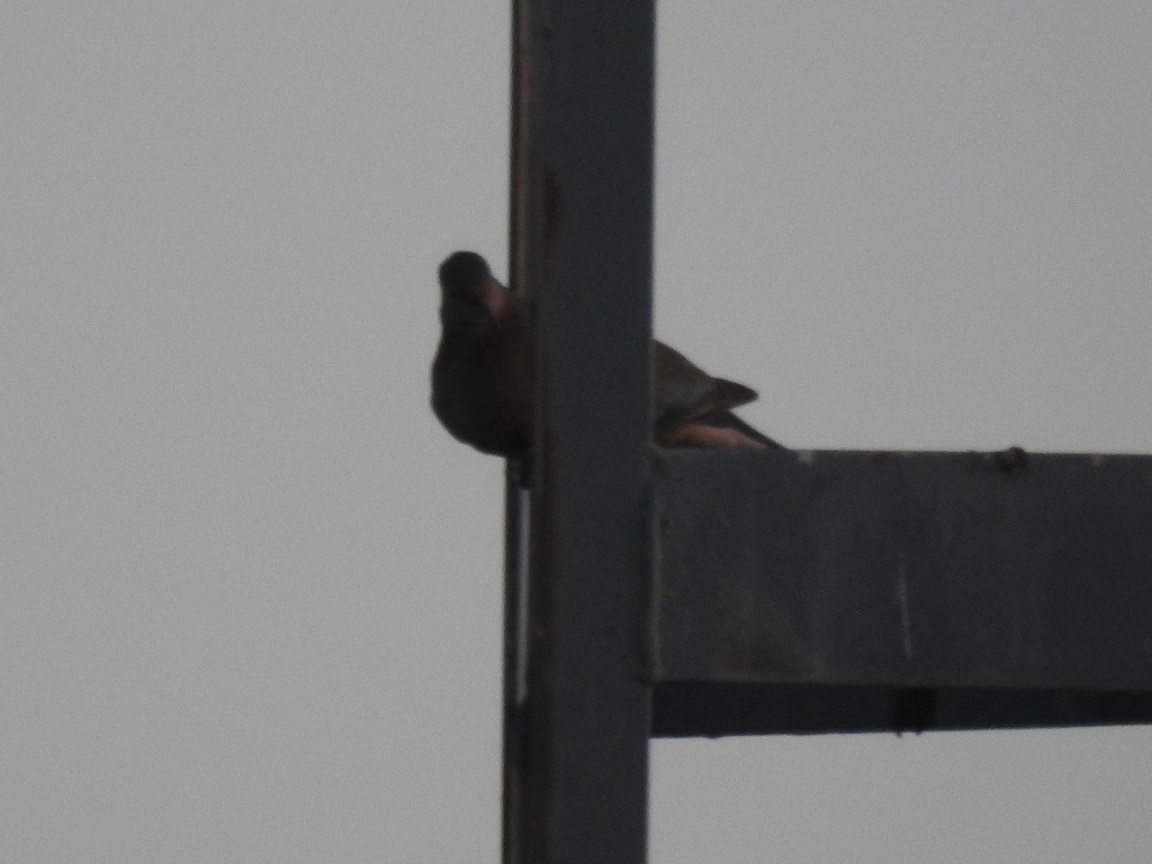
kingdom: Animalia
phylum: Chordata
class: Aves
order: Columbiformes
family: Columbidae
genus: Spilopelia
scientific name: Spilopelia senegalensis
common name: Laughing dove
